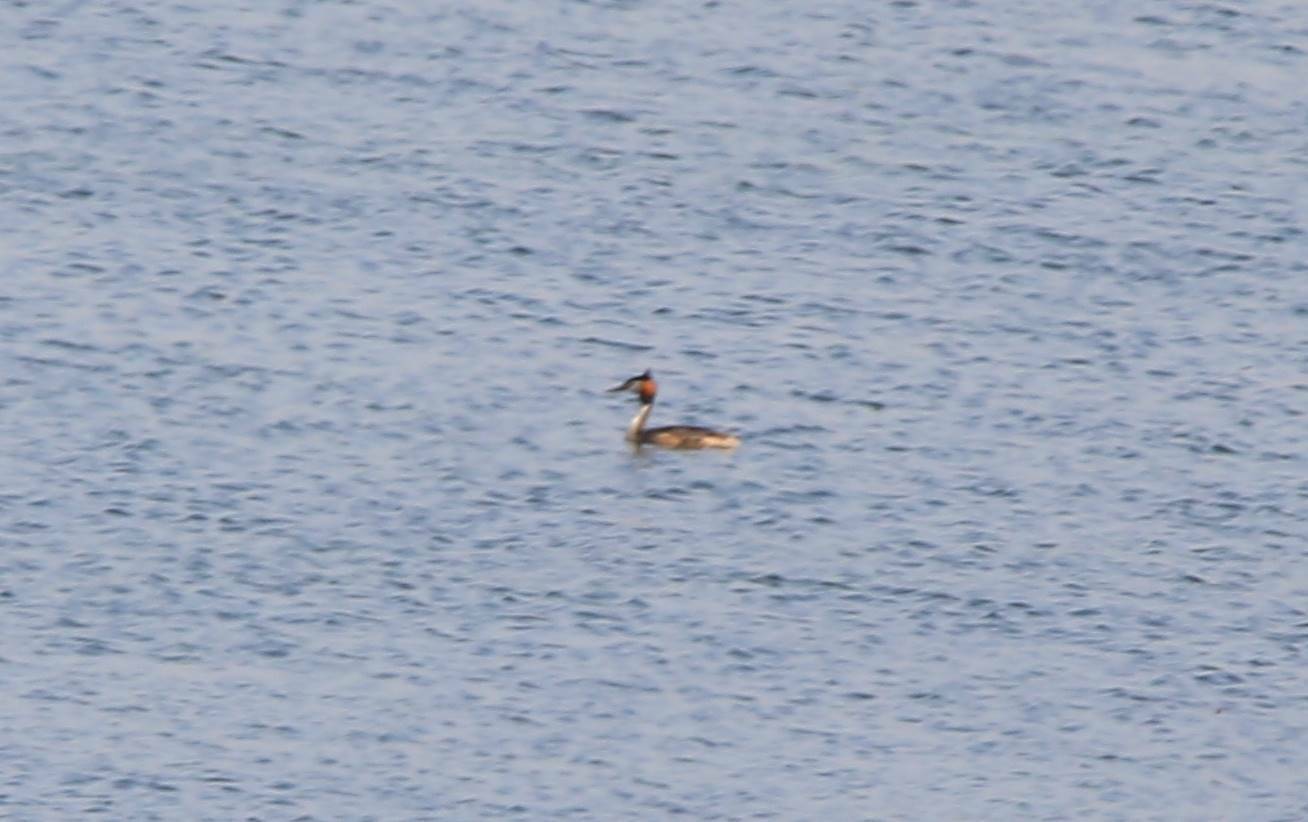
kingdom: Animalia
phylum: Chordata
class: Aves
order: Podicipediformes
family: Podicipedidae
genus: Podiceps
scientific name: Podiceps cristatus
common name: Great crested grebe
